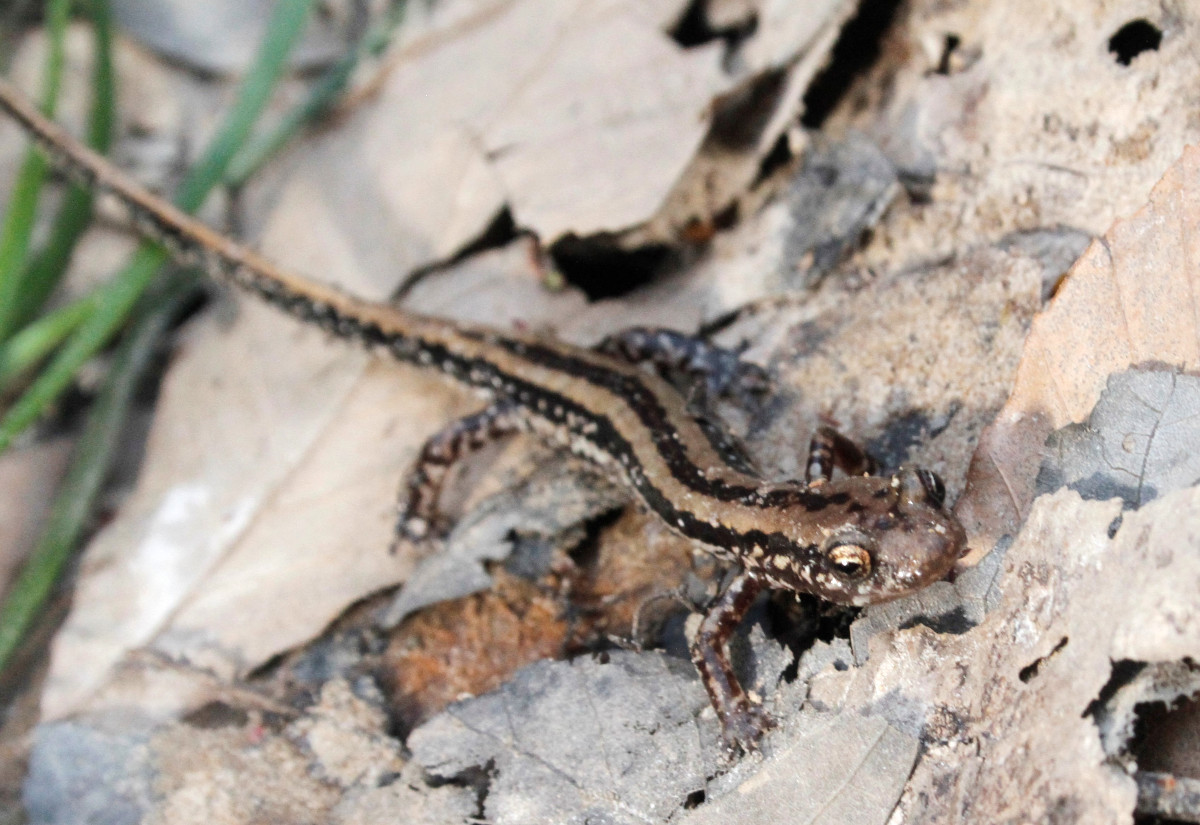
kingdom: Animalia
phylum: Chordata
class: Amphibia
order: Caudata
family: Plethodontidae
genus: Eurycea
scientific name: Eurycea guttolineata
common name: Three-lined salamander
